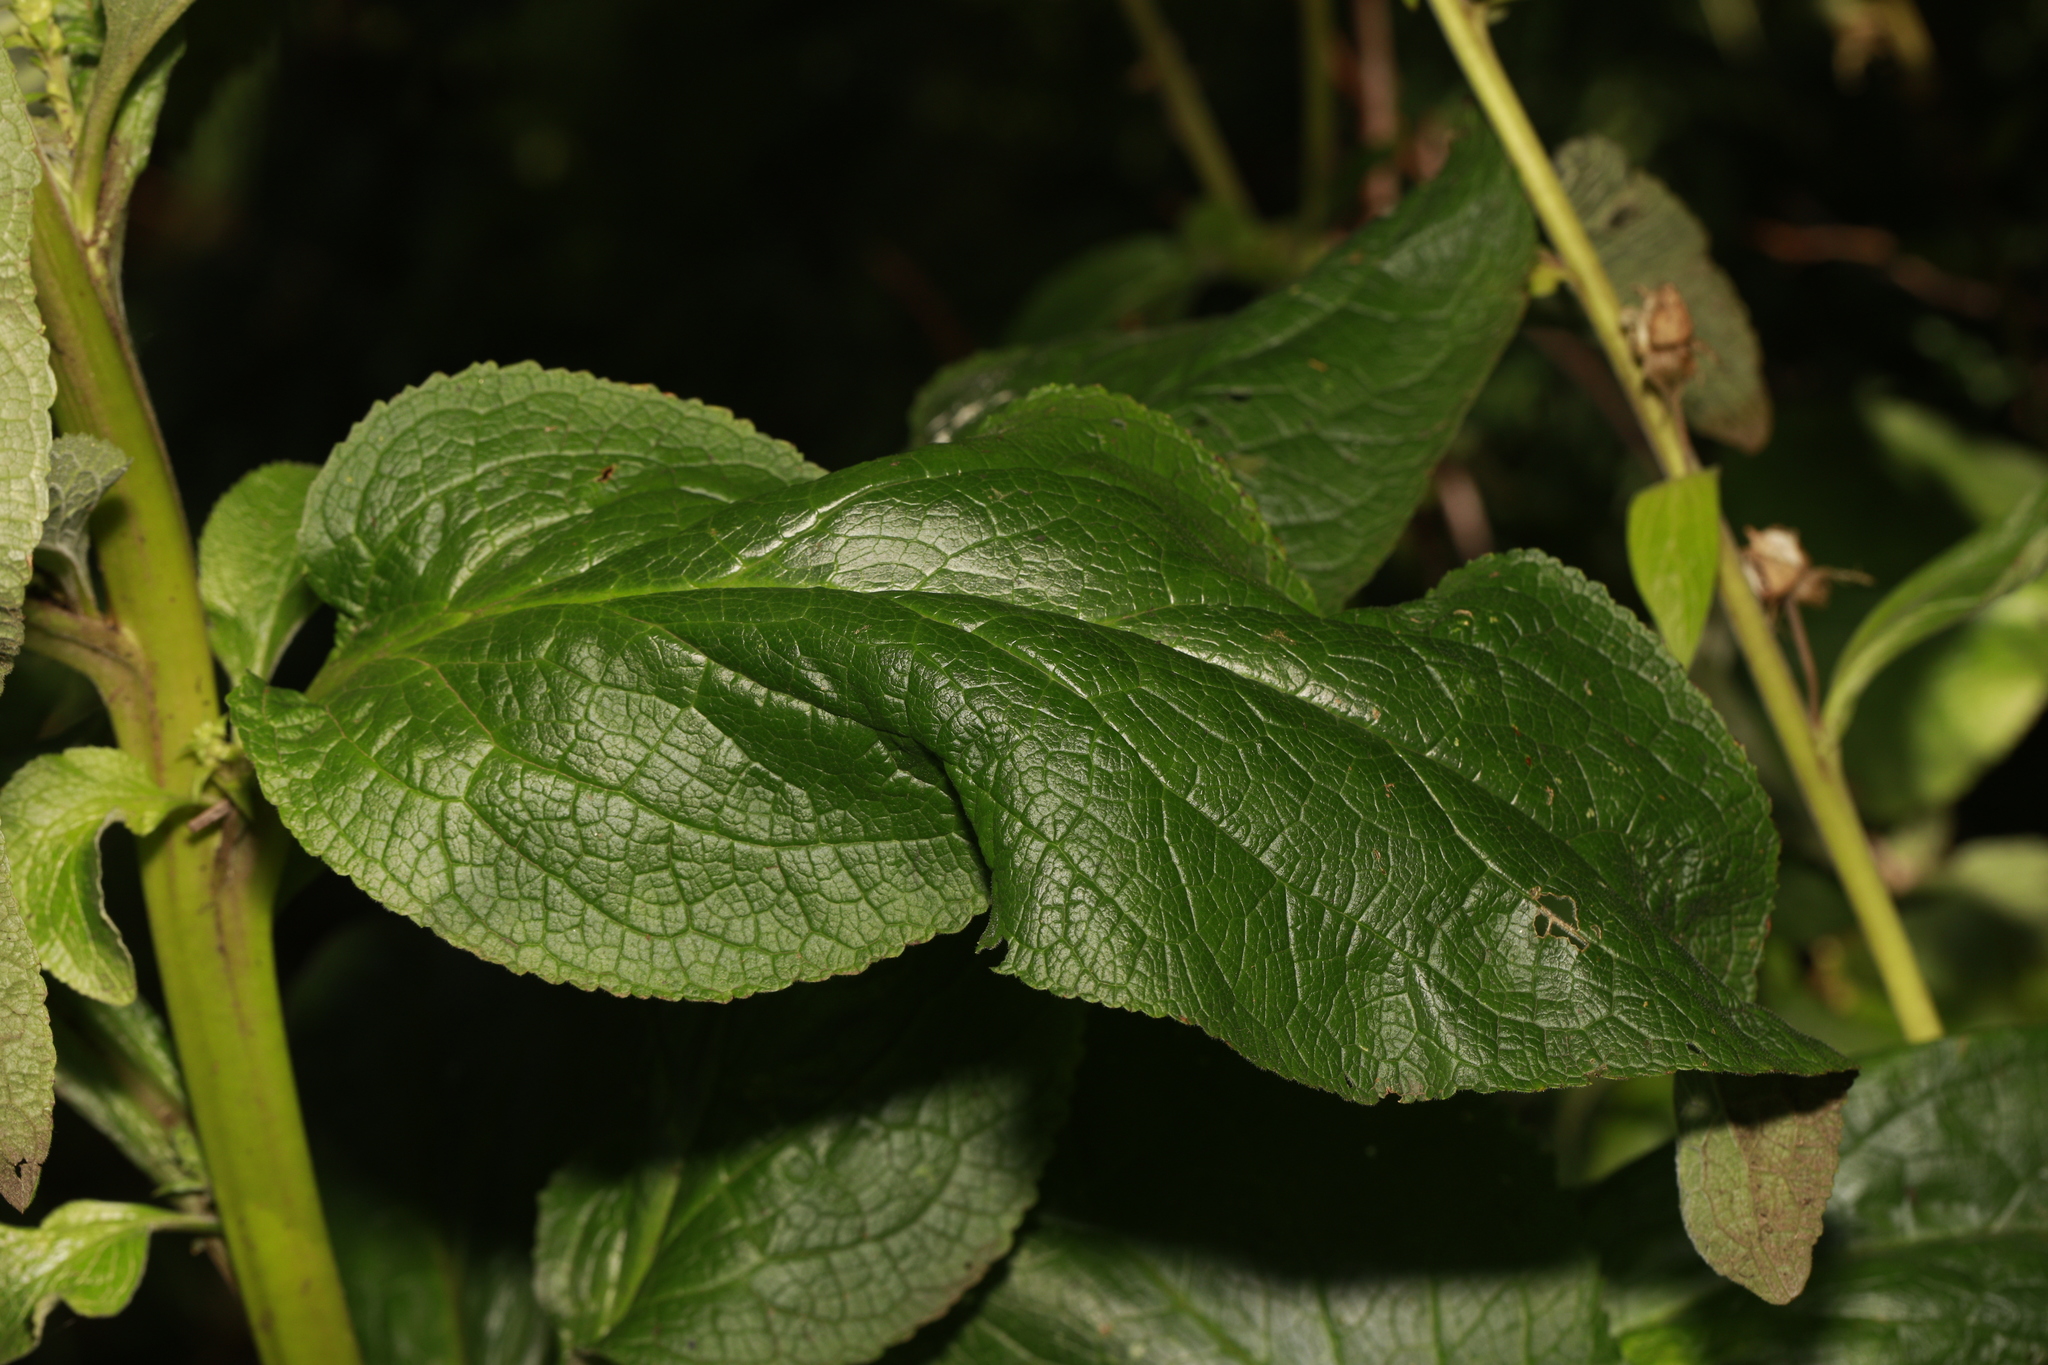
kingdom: Plantae
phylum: Tracheophyta
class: Magnoliopsida
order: Lamiales
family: Plantaginaceae
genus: Digitalis
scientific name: Digitalis purpurea
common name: Foxglove
